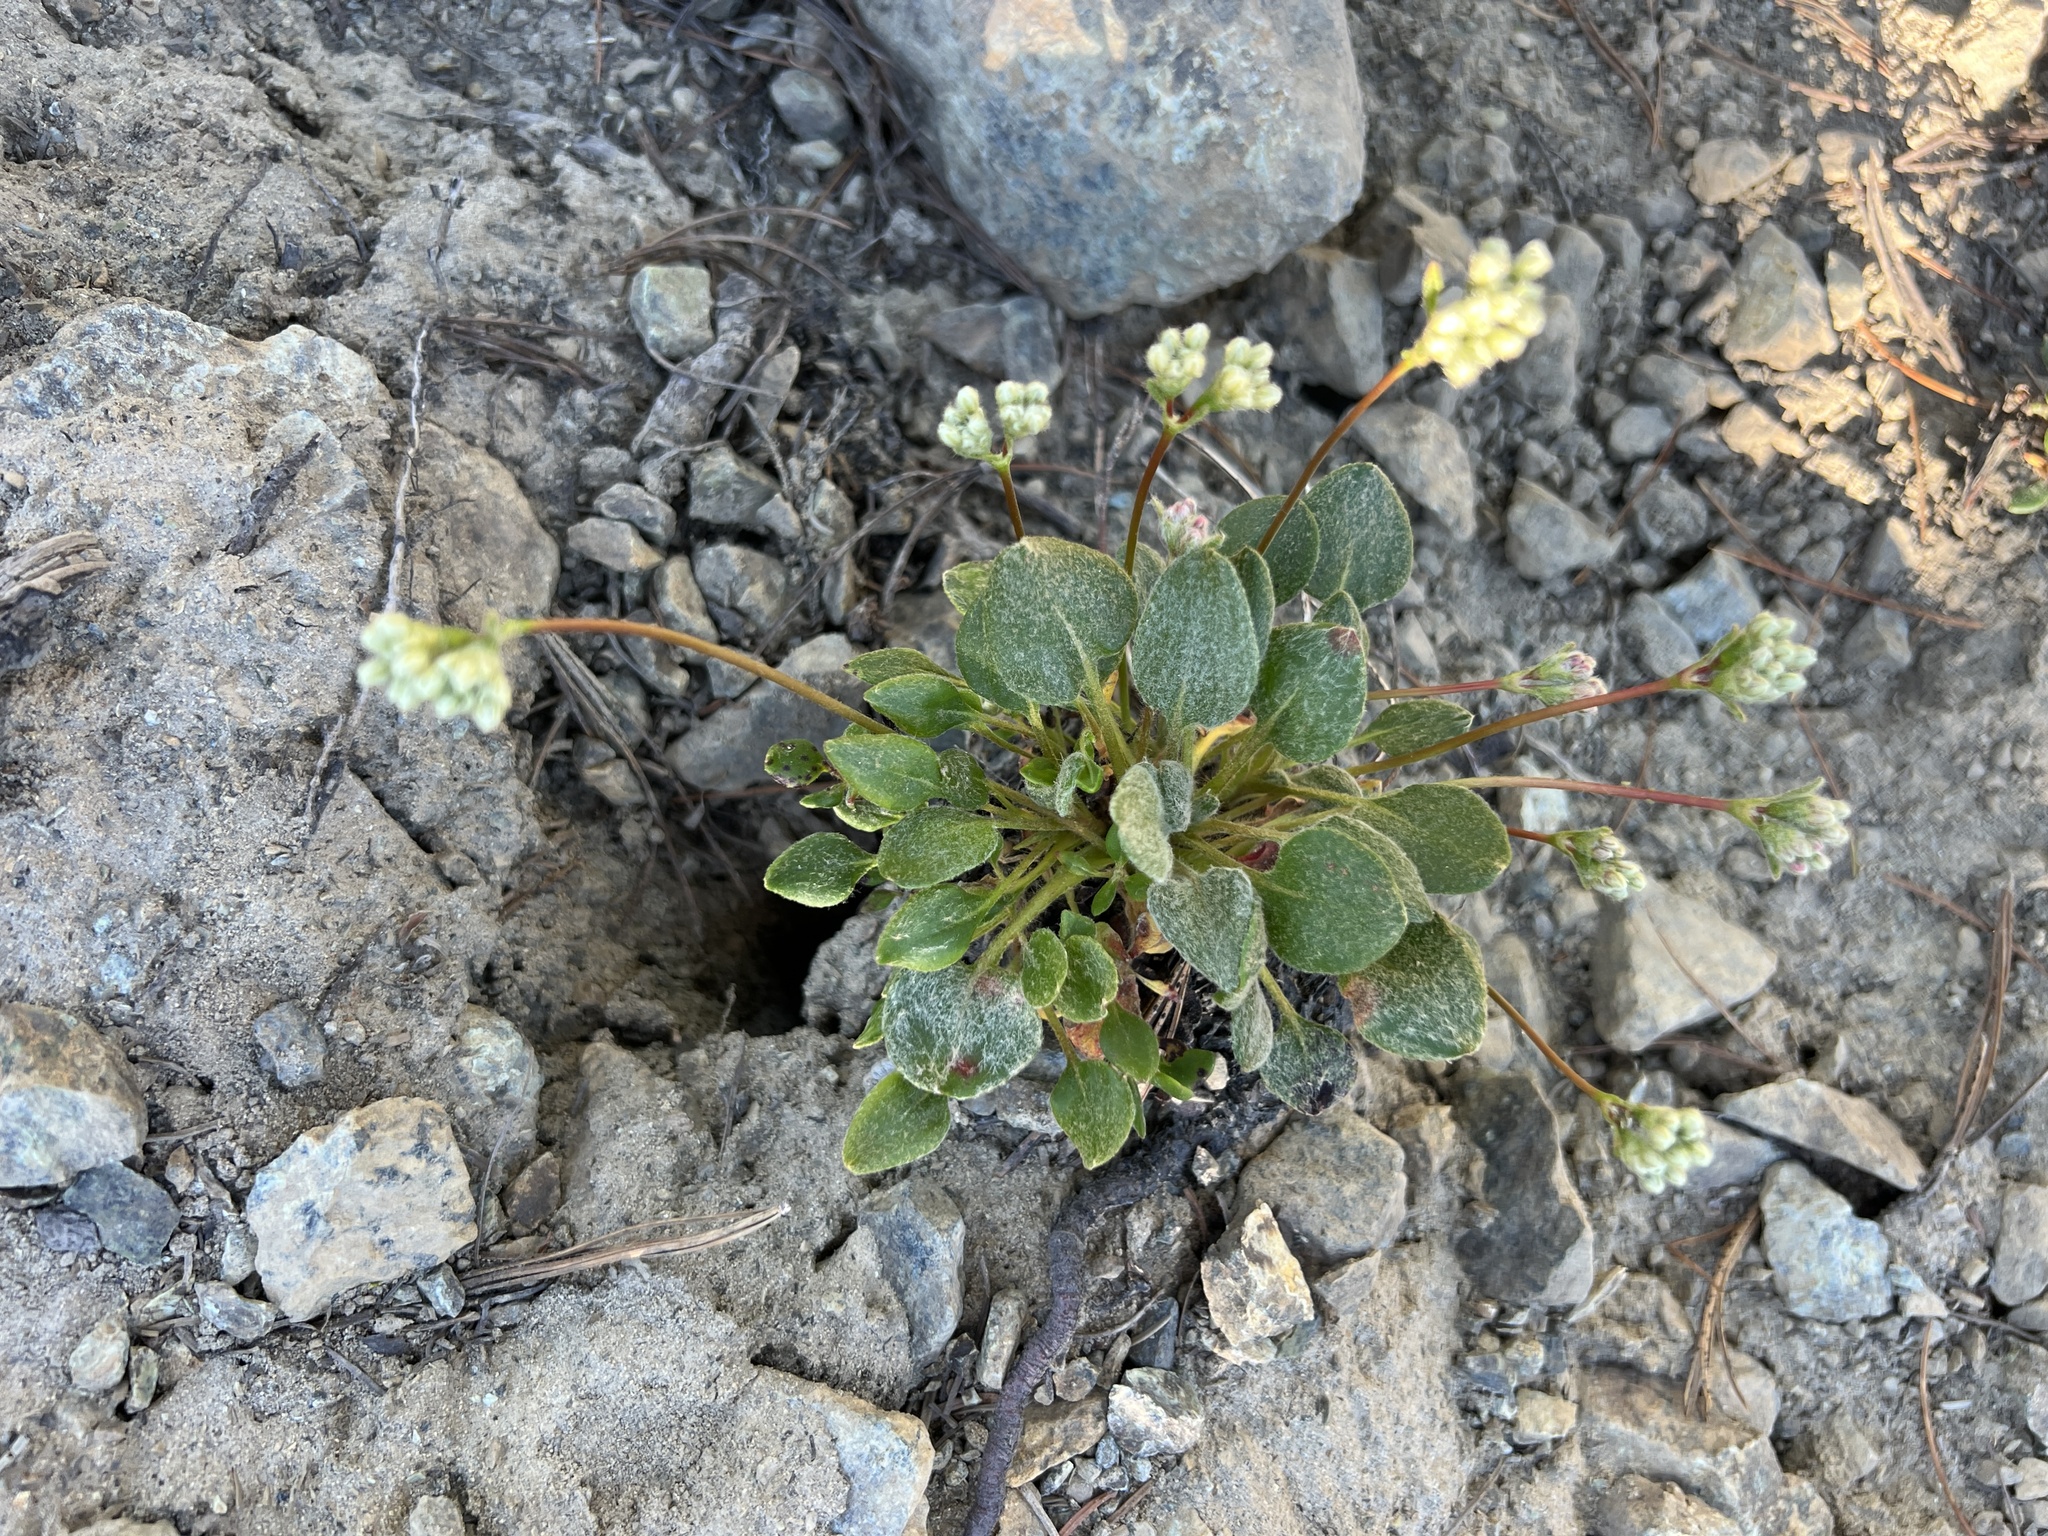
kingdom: Plantae
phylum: Tracheophyta
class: Magnoliopsida
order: Caryophyllales
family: Polygonaceae
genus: Eriogonum
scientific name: Eriogonum pyrolifolium
